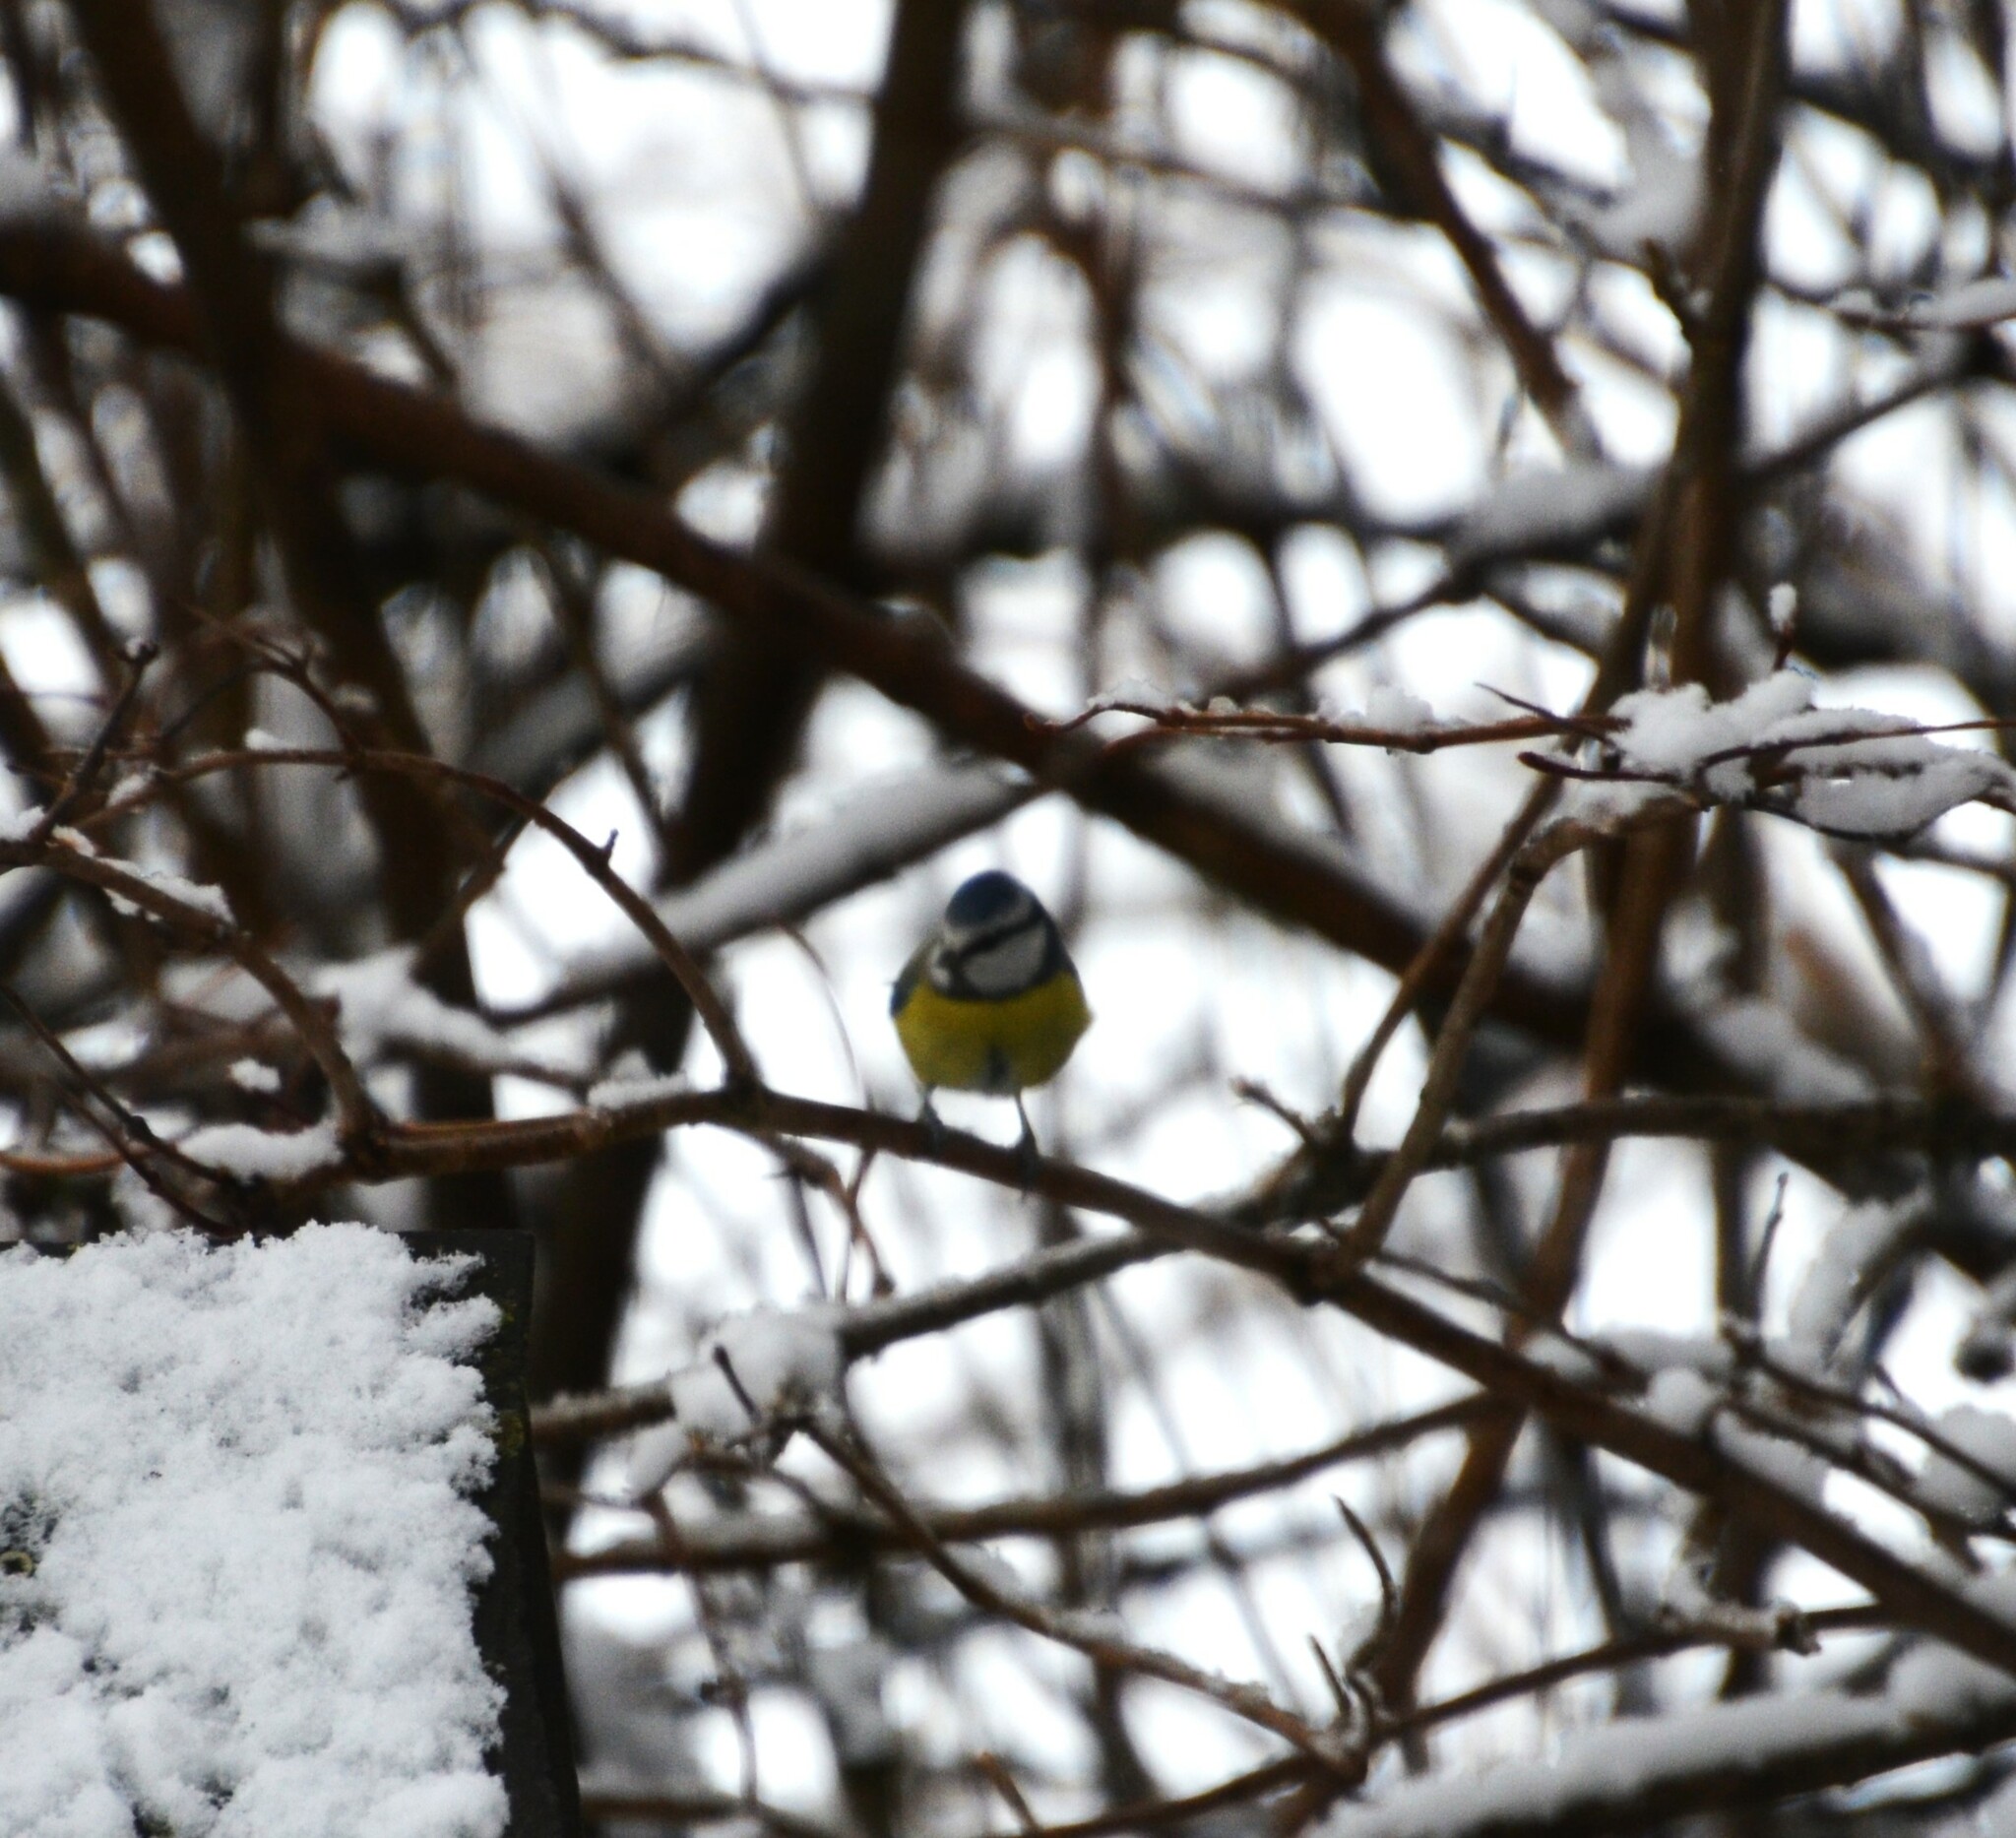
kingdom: Animalia
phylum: Chordata
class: Aves
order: Passeriformes
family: Paridae
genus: Cyanistes
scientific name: Cyanistes caeruleus
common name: Eurasian blue tit
